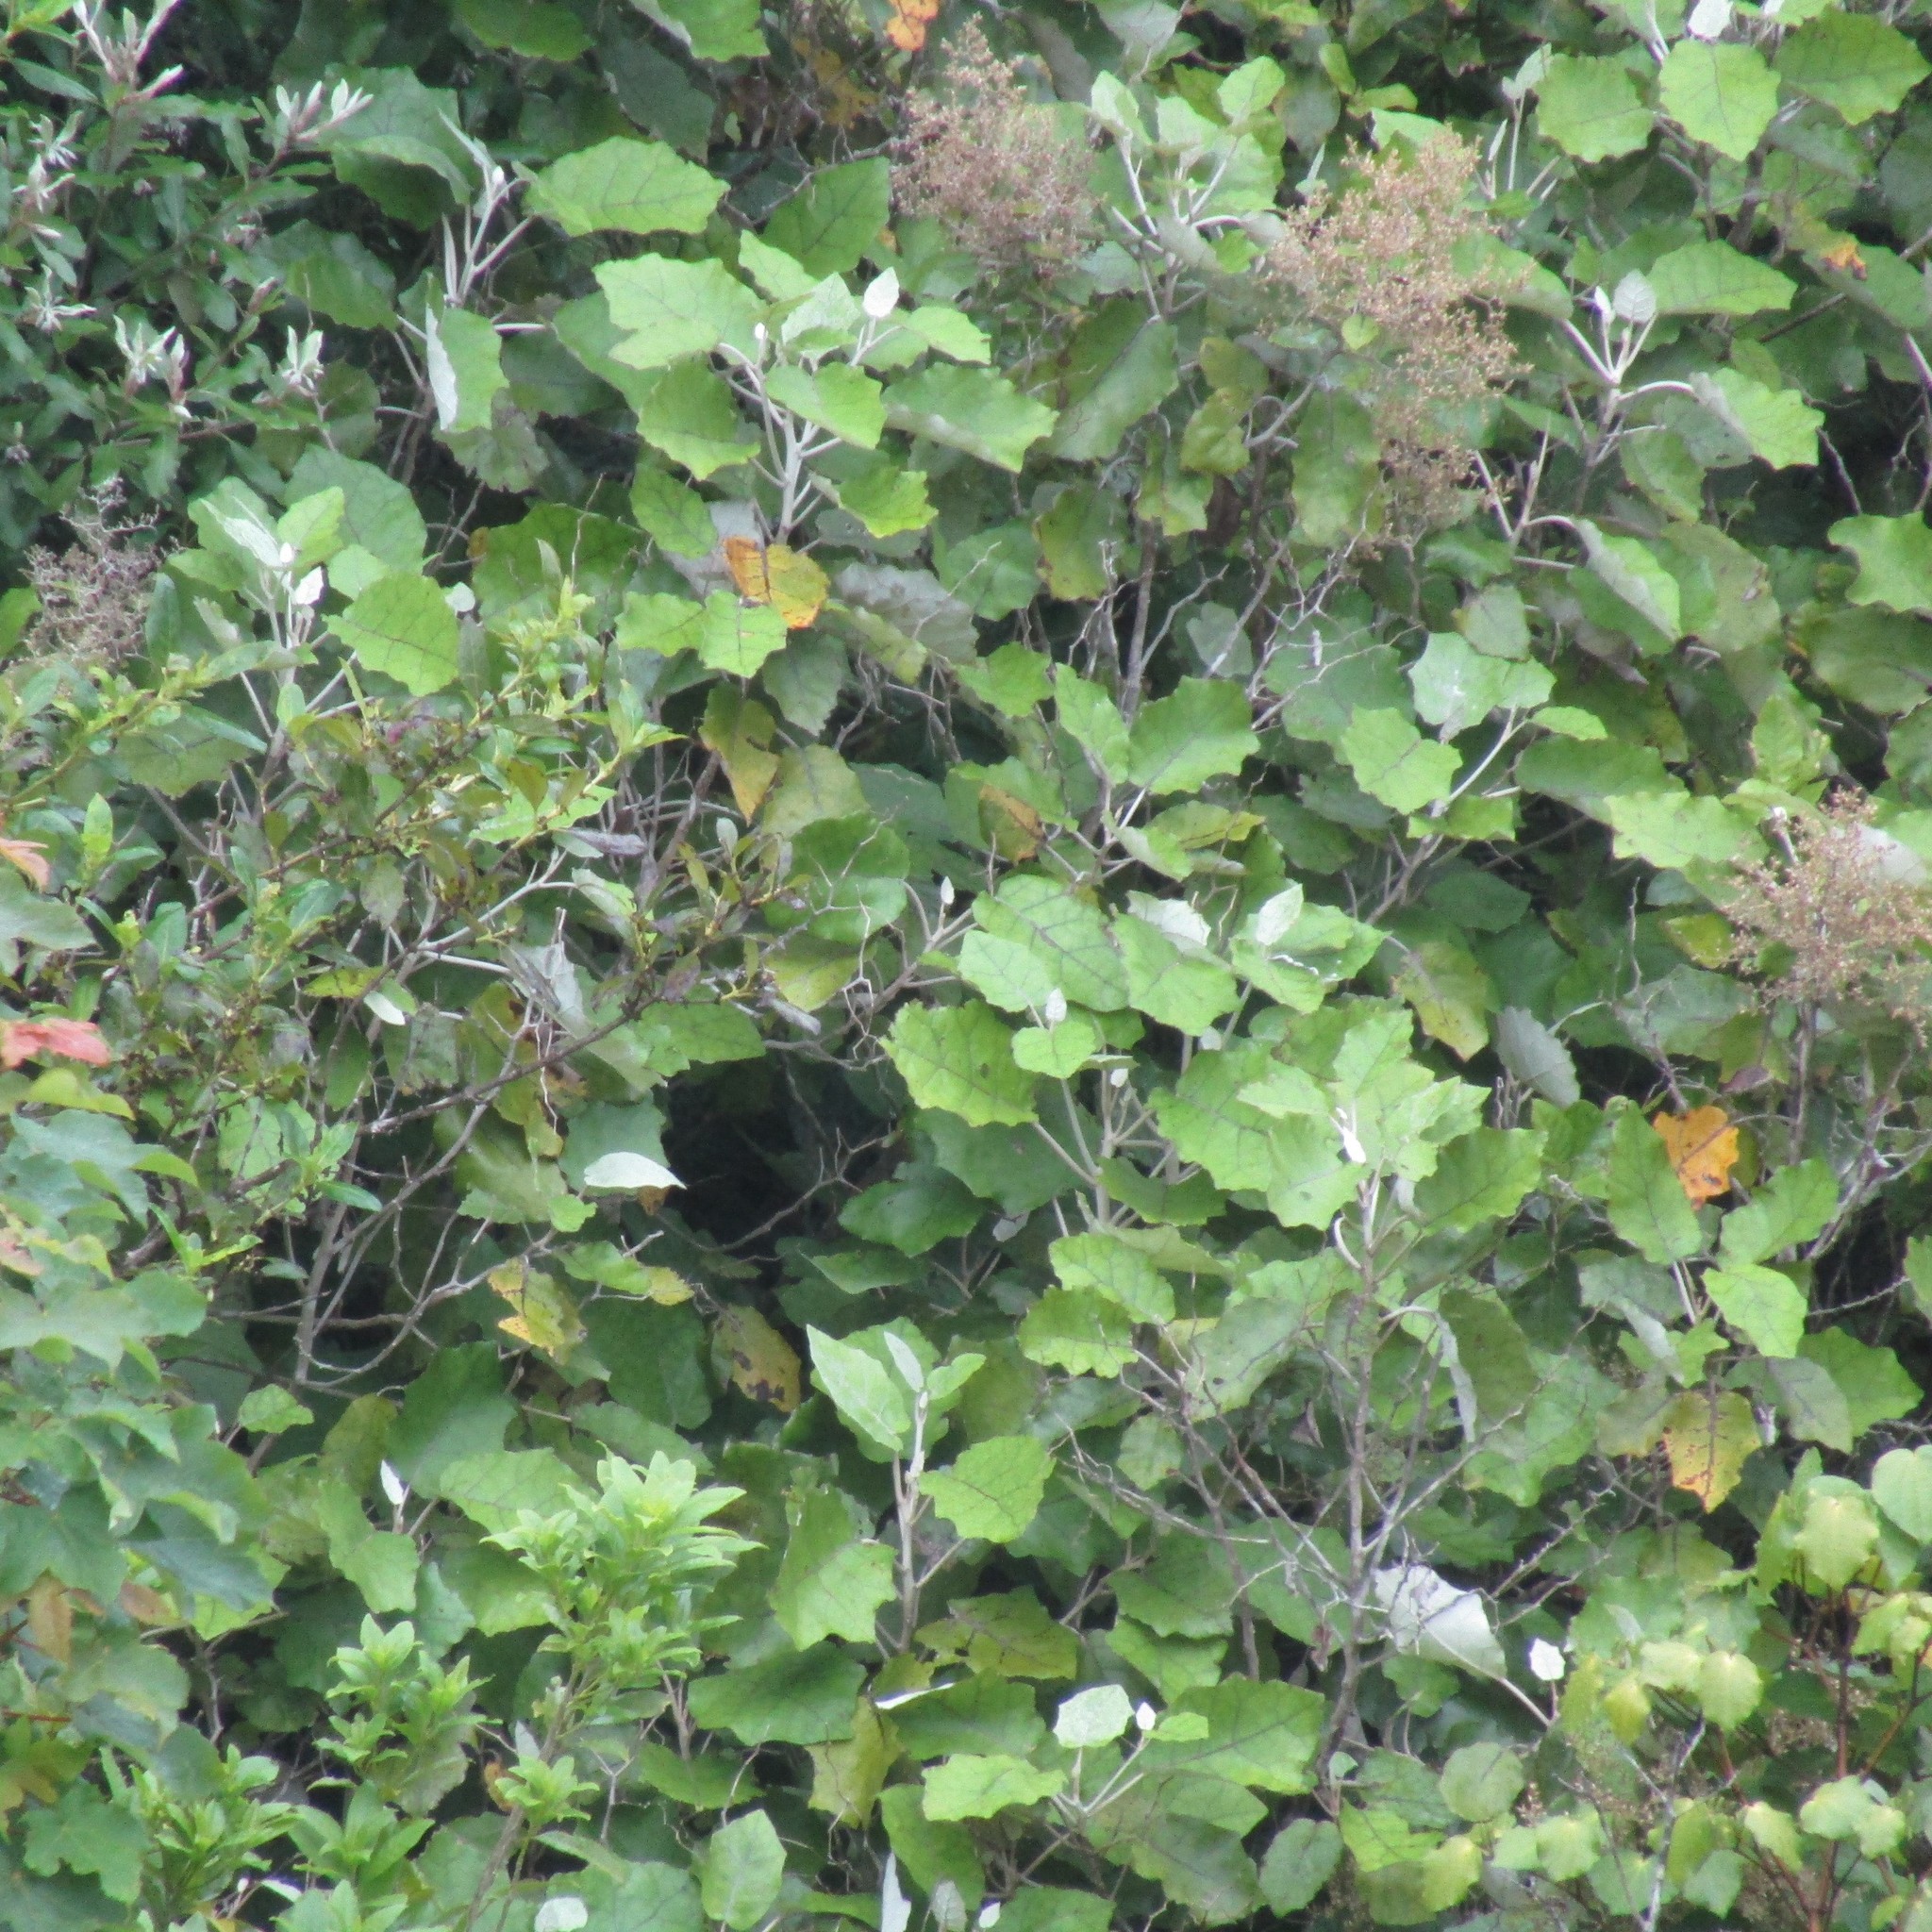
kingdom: Plantae
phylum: Tracheophyta
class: Magnoliopsida
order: Asterales
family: Asteraceae
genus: Brachyglottis
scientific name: Brachyglottis repanda
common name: Hedge ragwort
